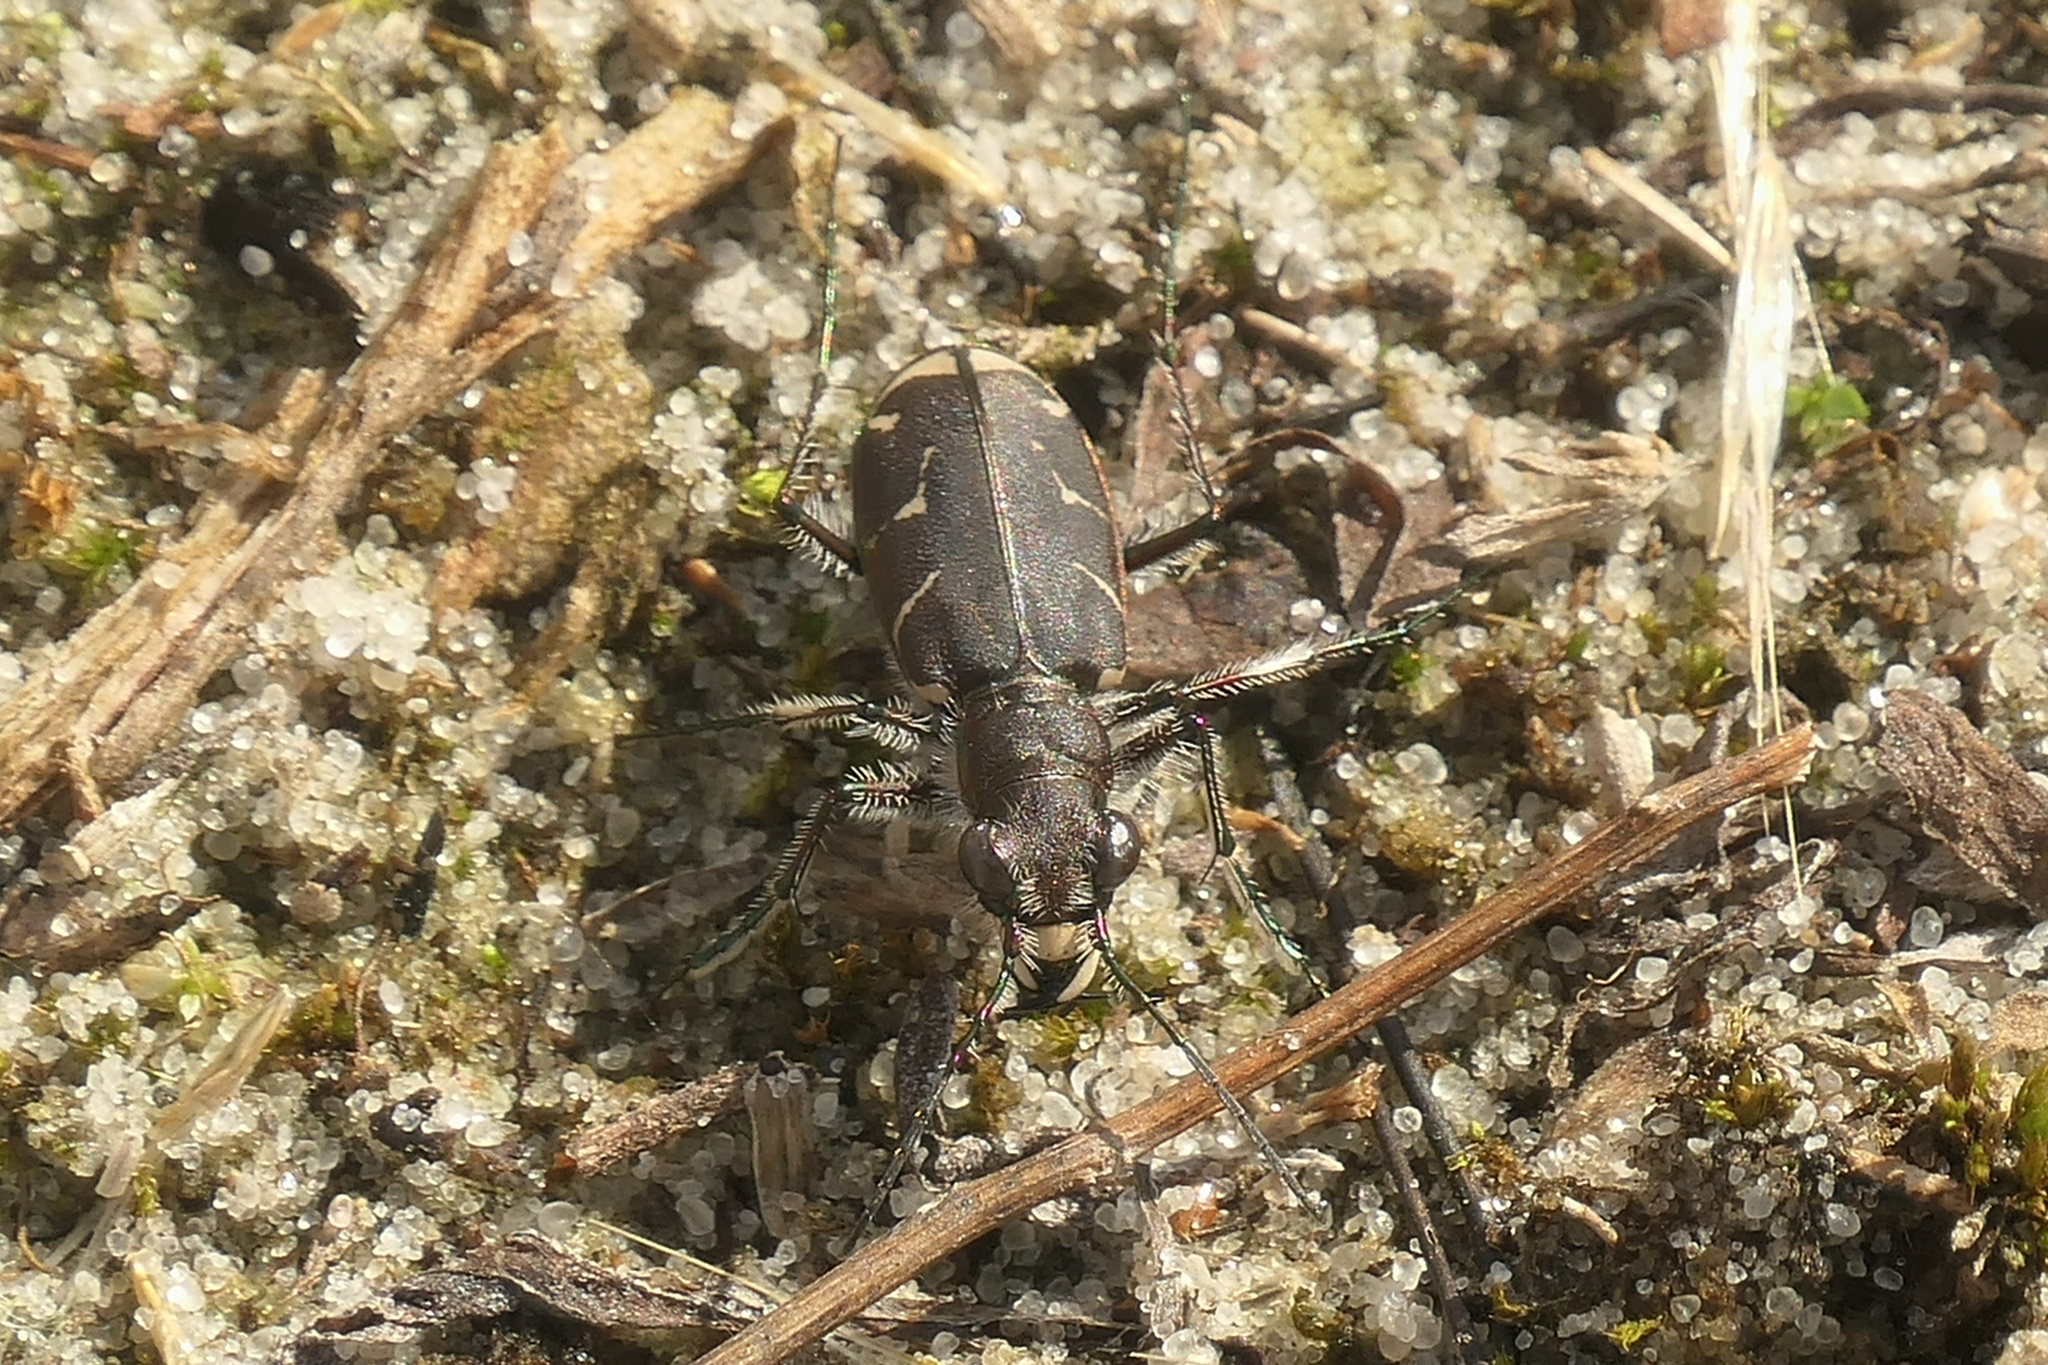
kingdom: Animalia
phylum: Arthropoda
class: Insecta
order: Coleoptera
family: Carabidae
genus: Cicindela
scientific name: Cicindela tranquebarica
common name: Oblique-lined tiger beetle
